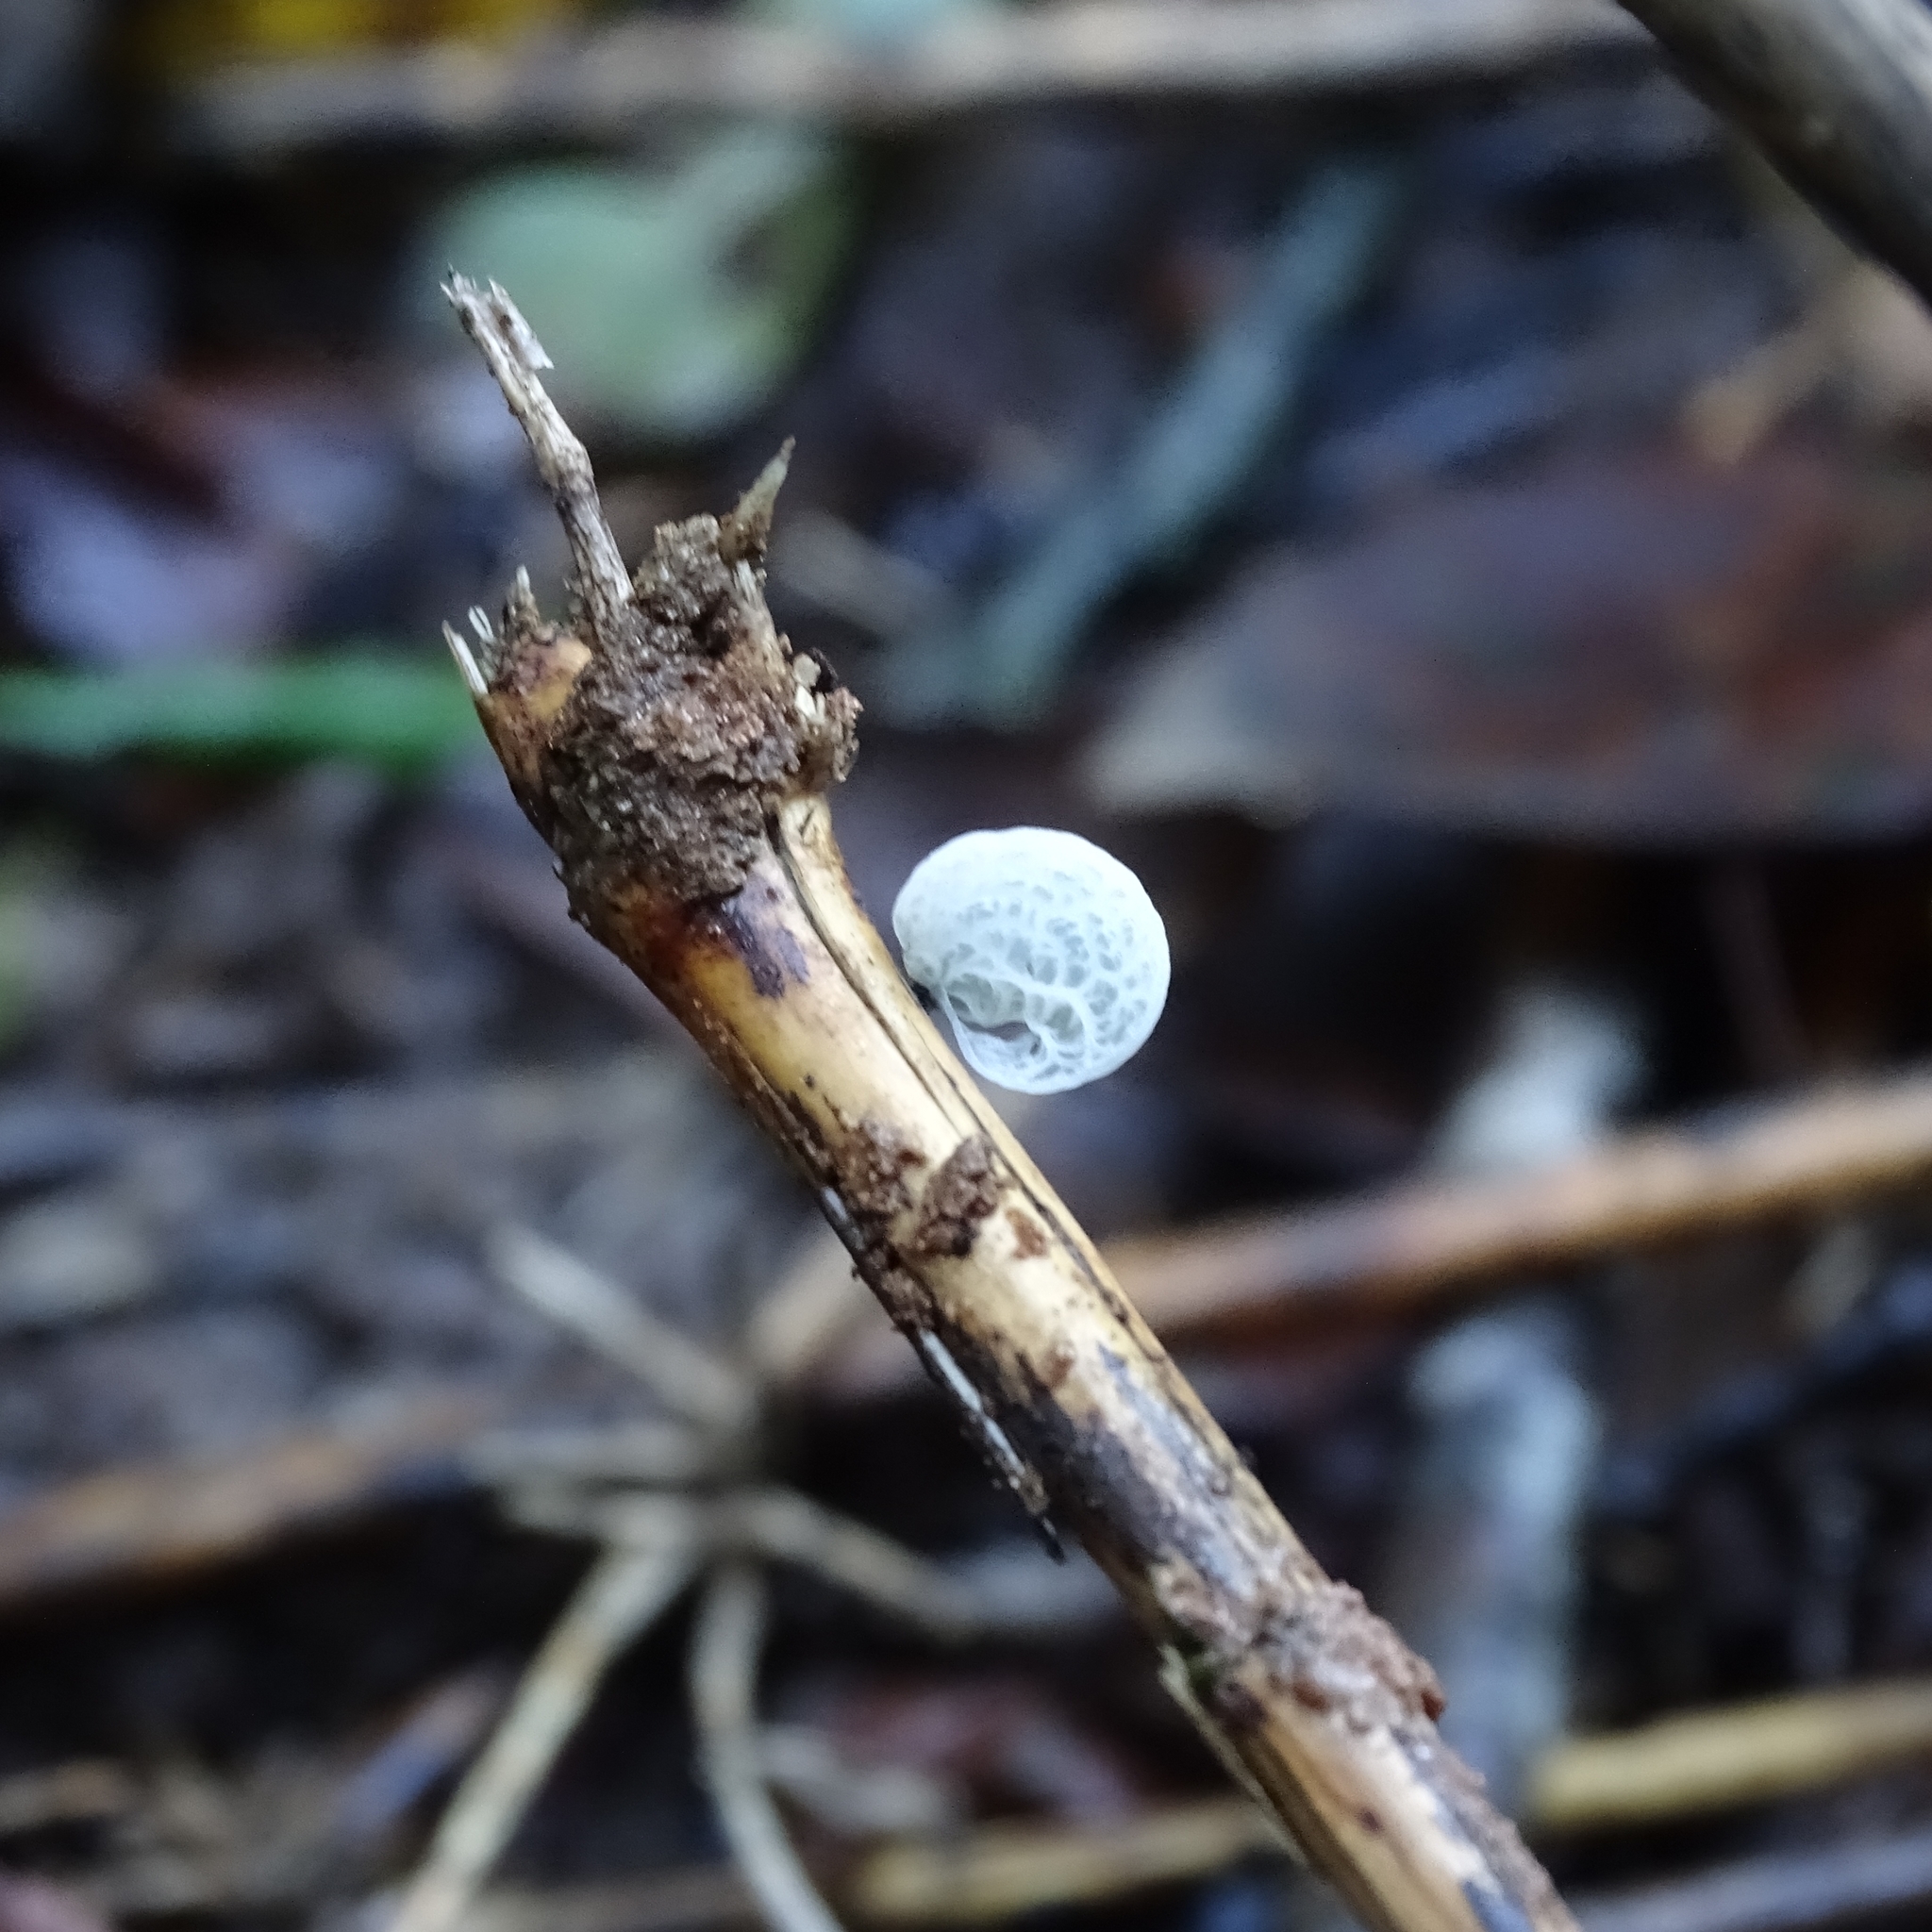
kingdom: Fungi
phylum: Basidiomycota
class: Agaricomycetes
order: Agaricales
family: Marasmiaceae
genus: Tetrapyrgos
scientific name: Tetrapyrgos alba
